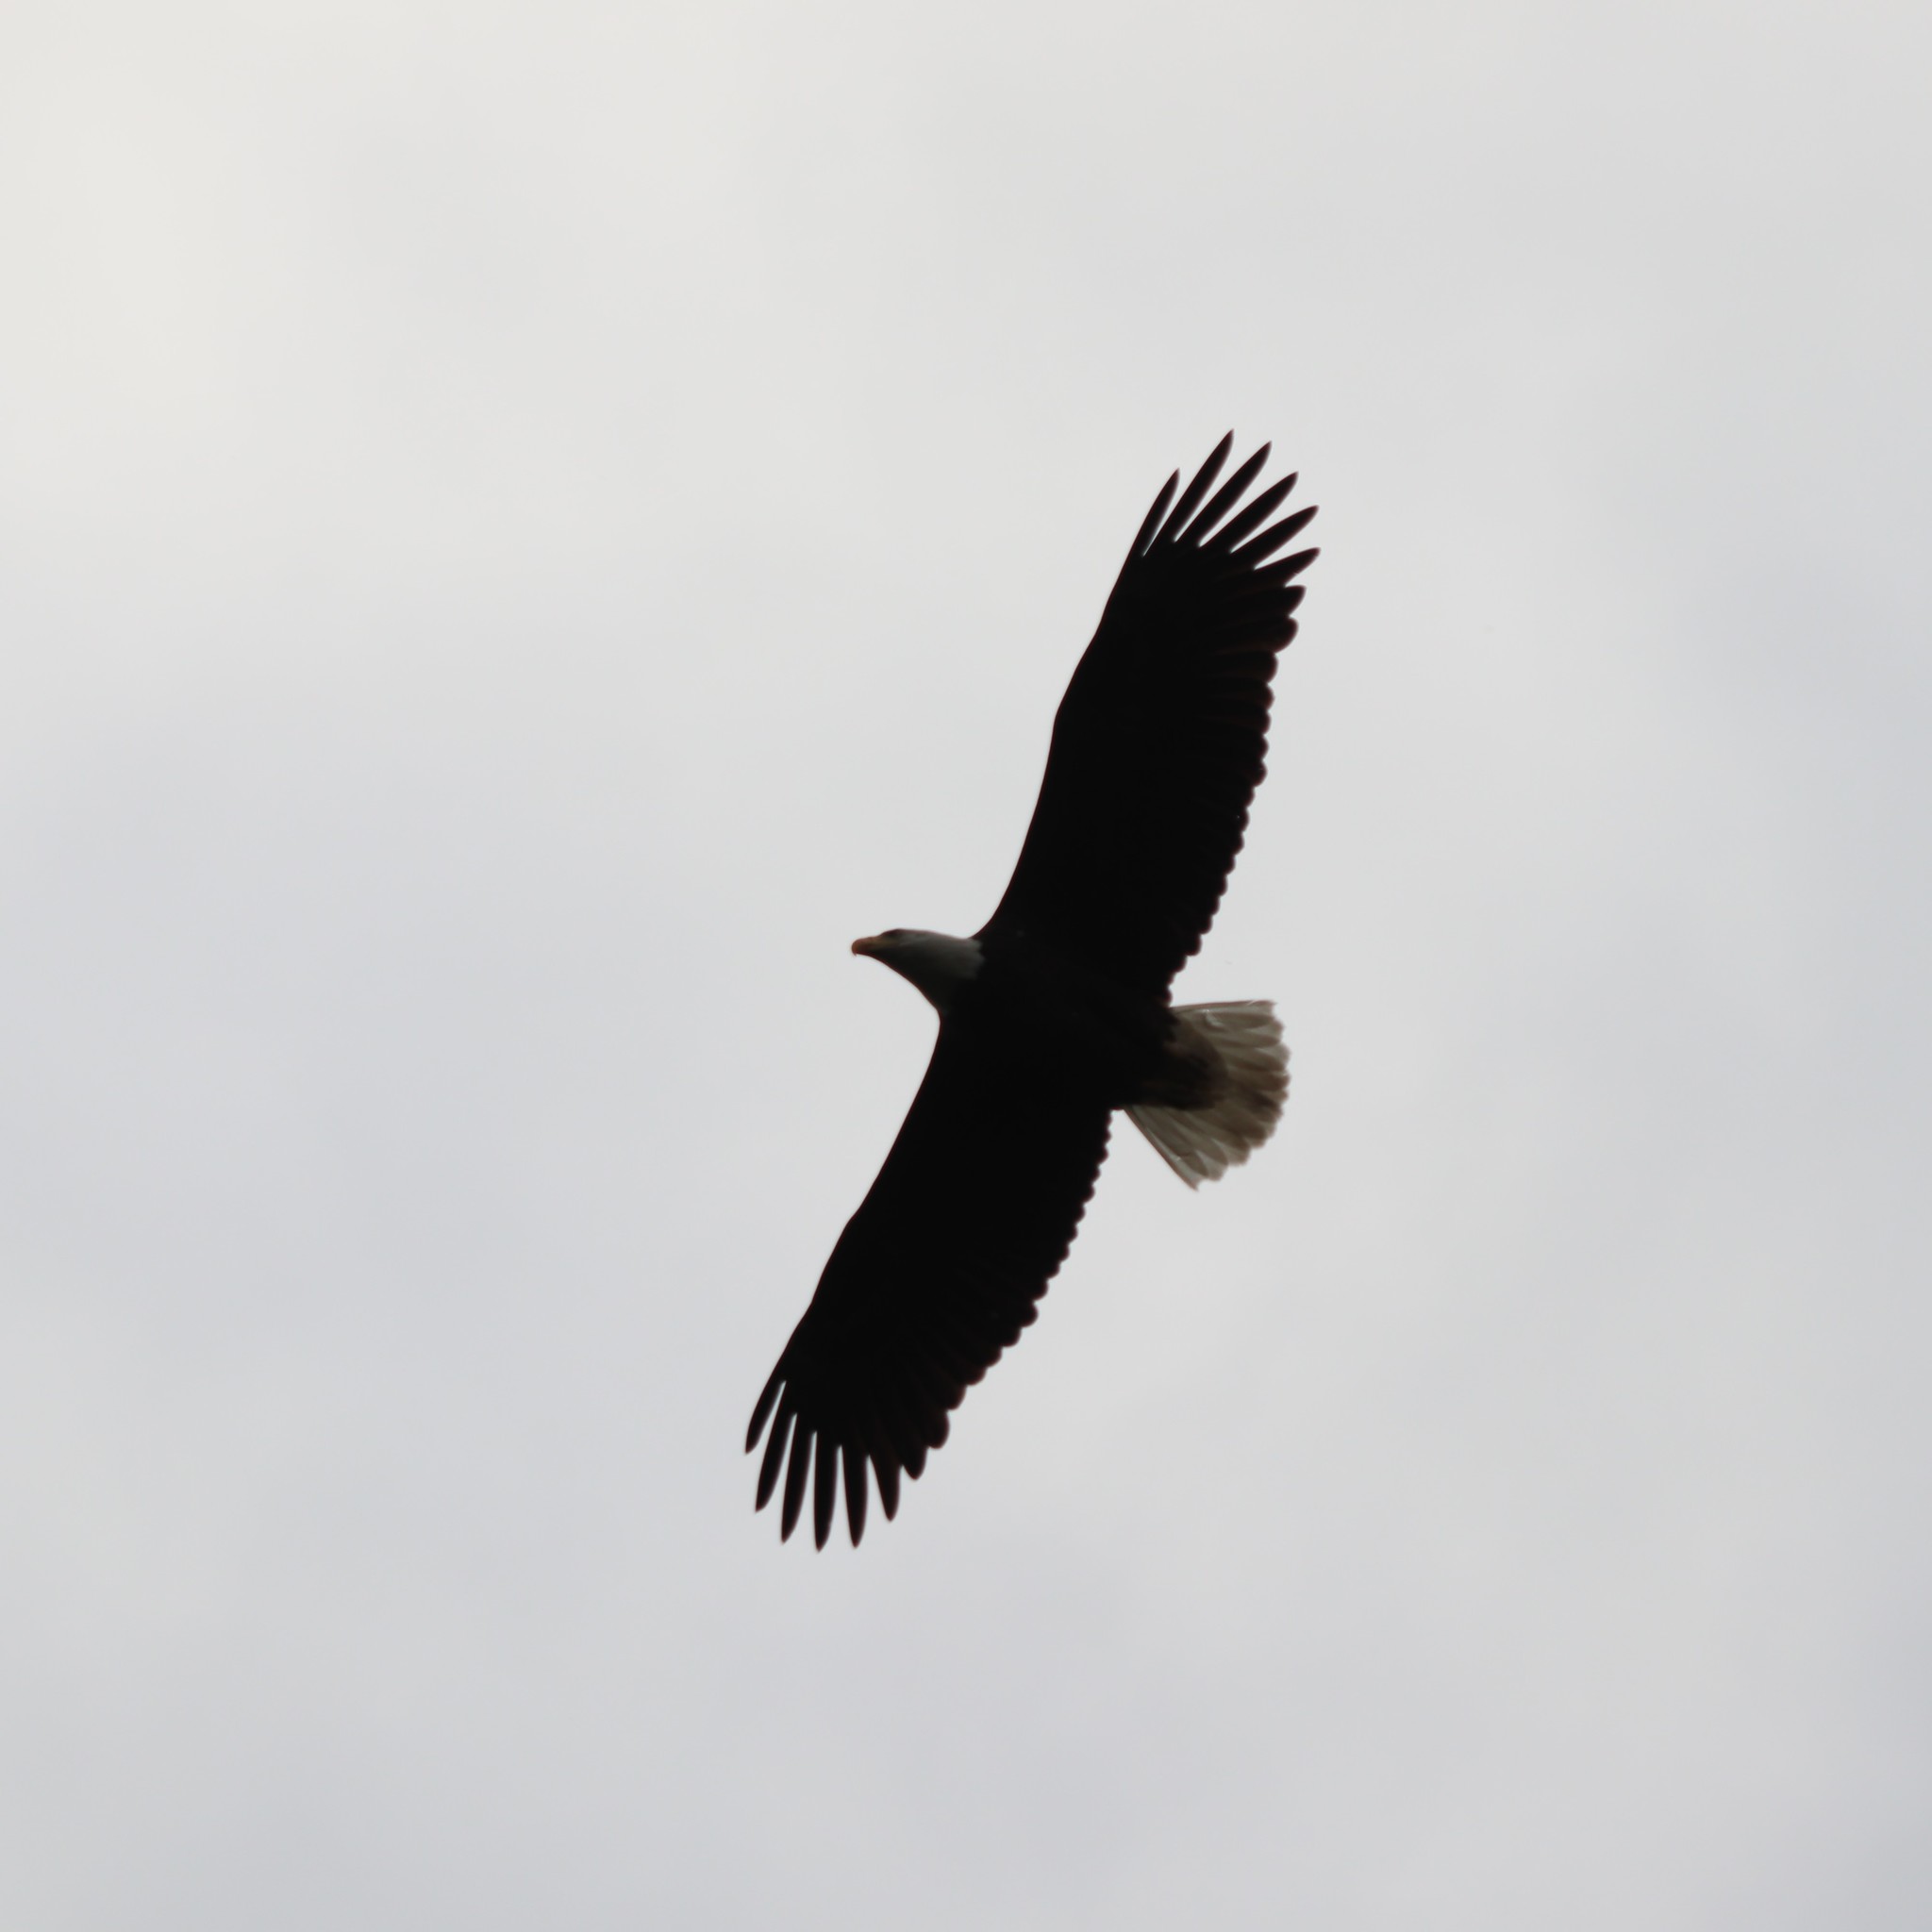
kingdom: Animalia
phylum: Chordata
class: Aves
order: Accipitriformes
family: Accipitridae
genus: Haliaeetus
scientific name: Haliaeetus leucocephalus
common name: Bald eagle
